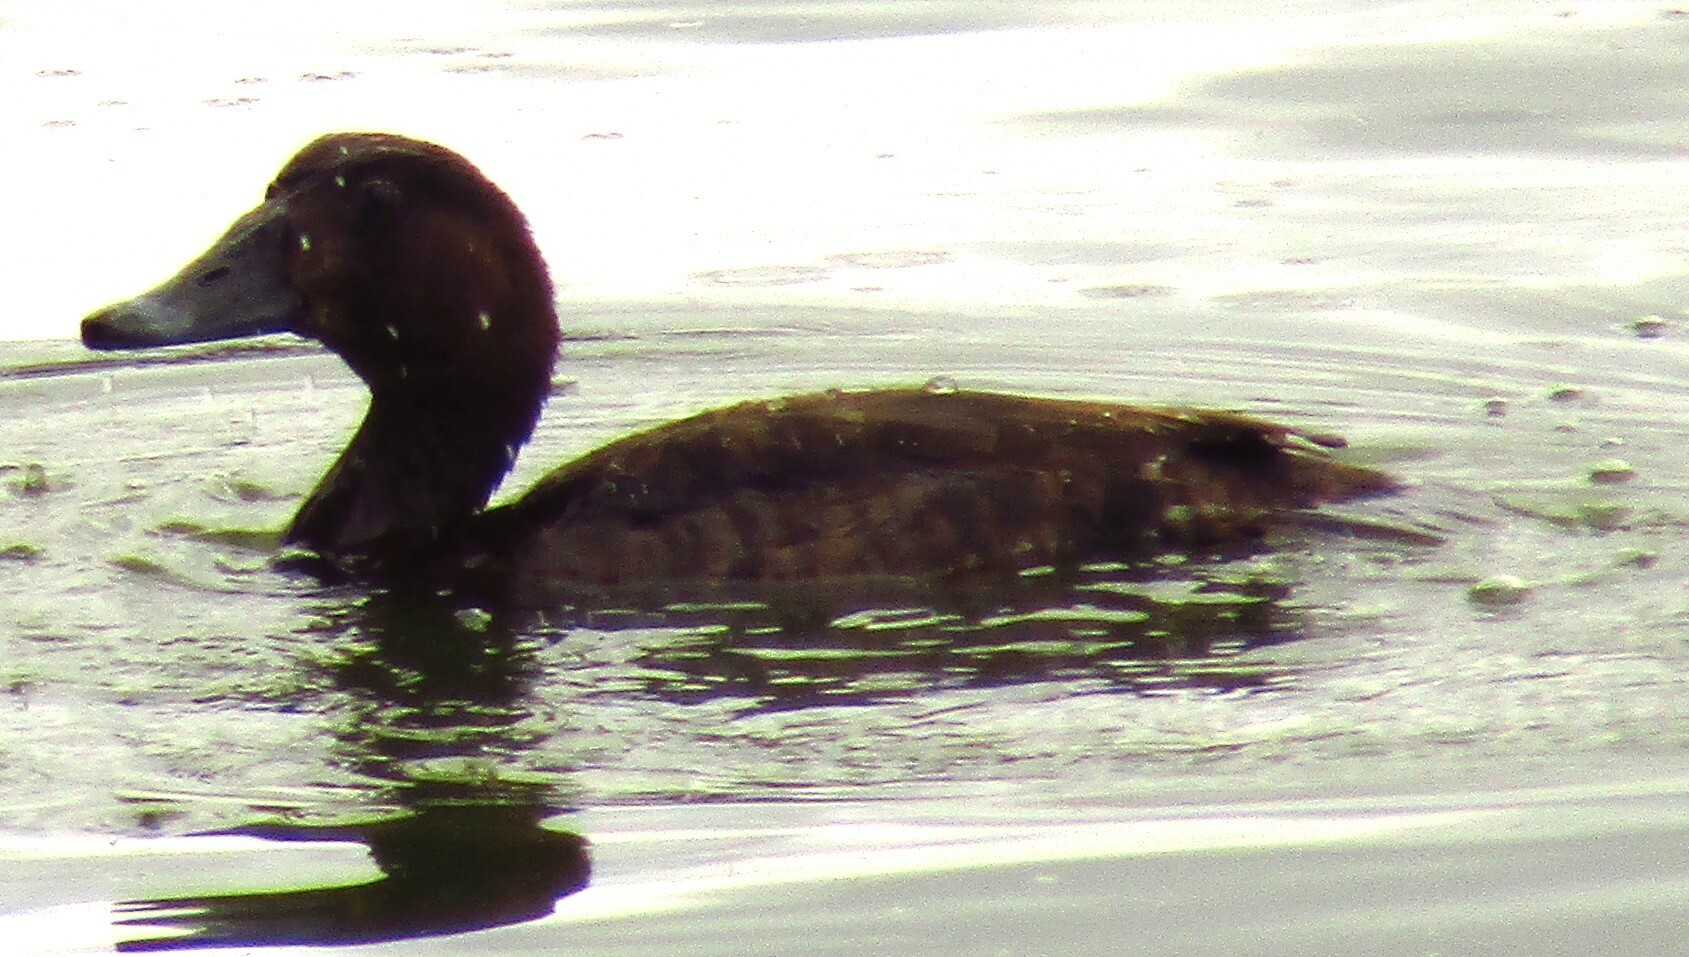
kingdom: Animalia
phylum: Chordata
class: Aves
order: Anseriformes
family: Anatidae
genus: Oxyura
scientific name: Oxyura australis
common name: Blue-billed duck
